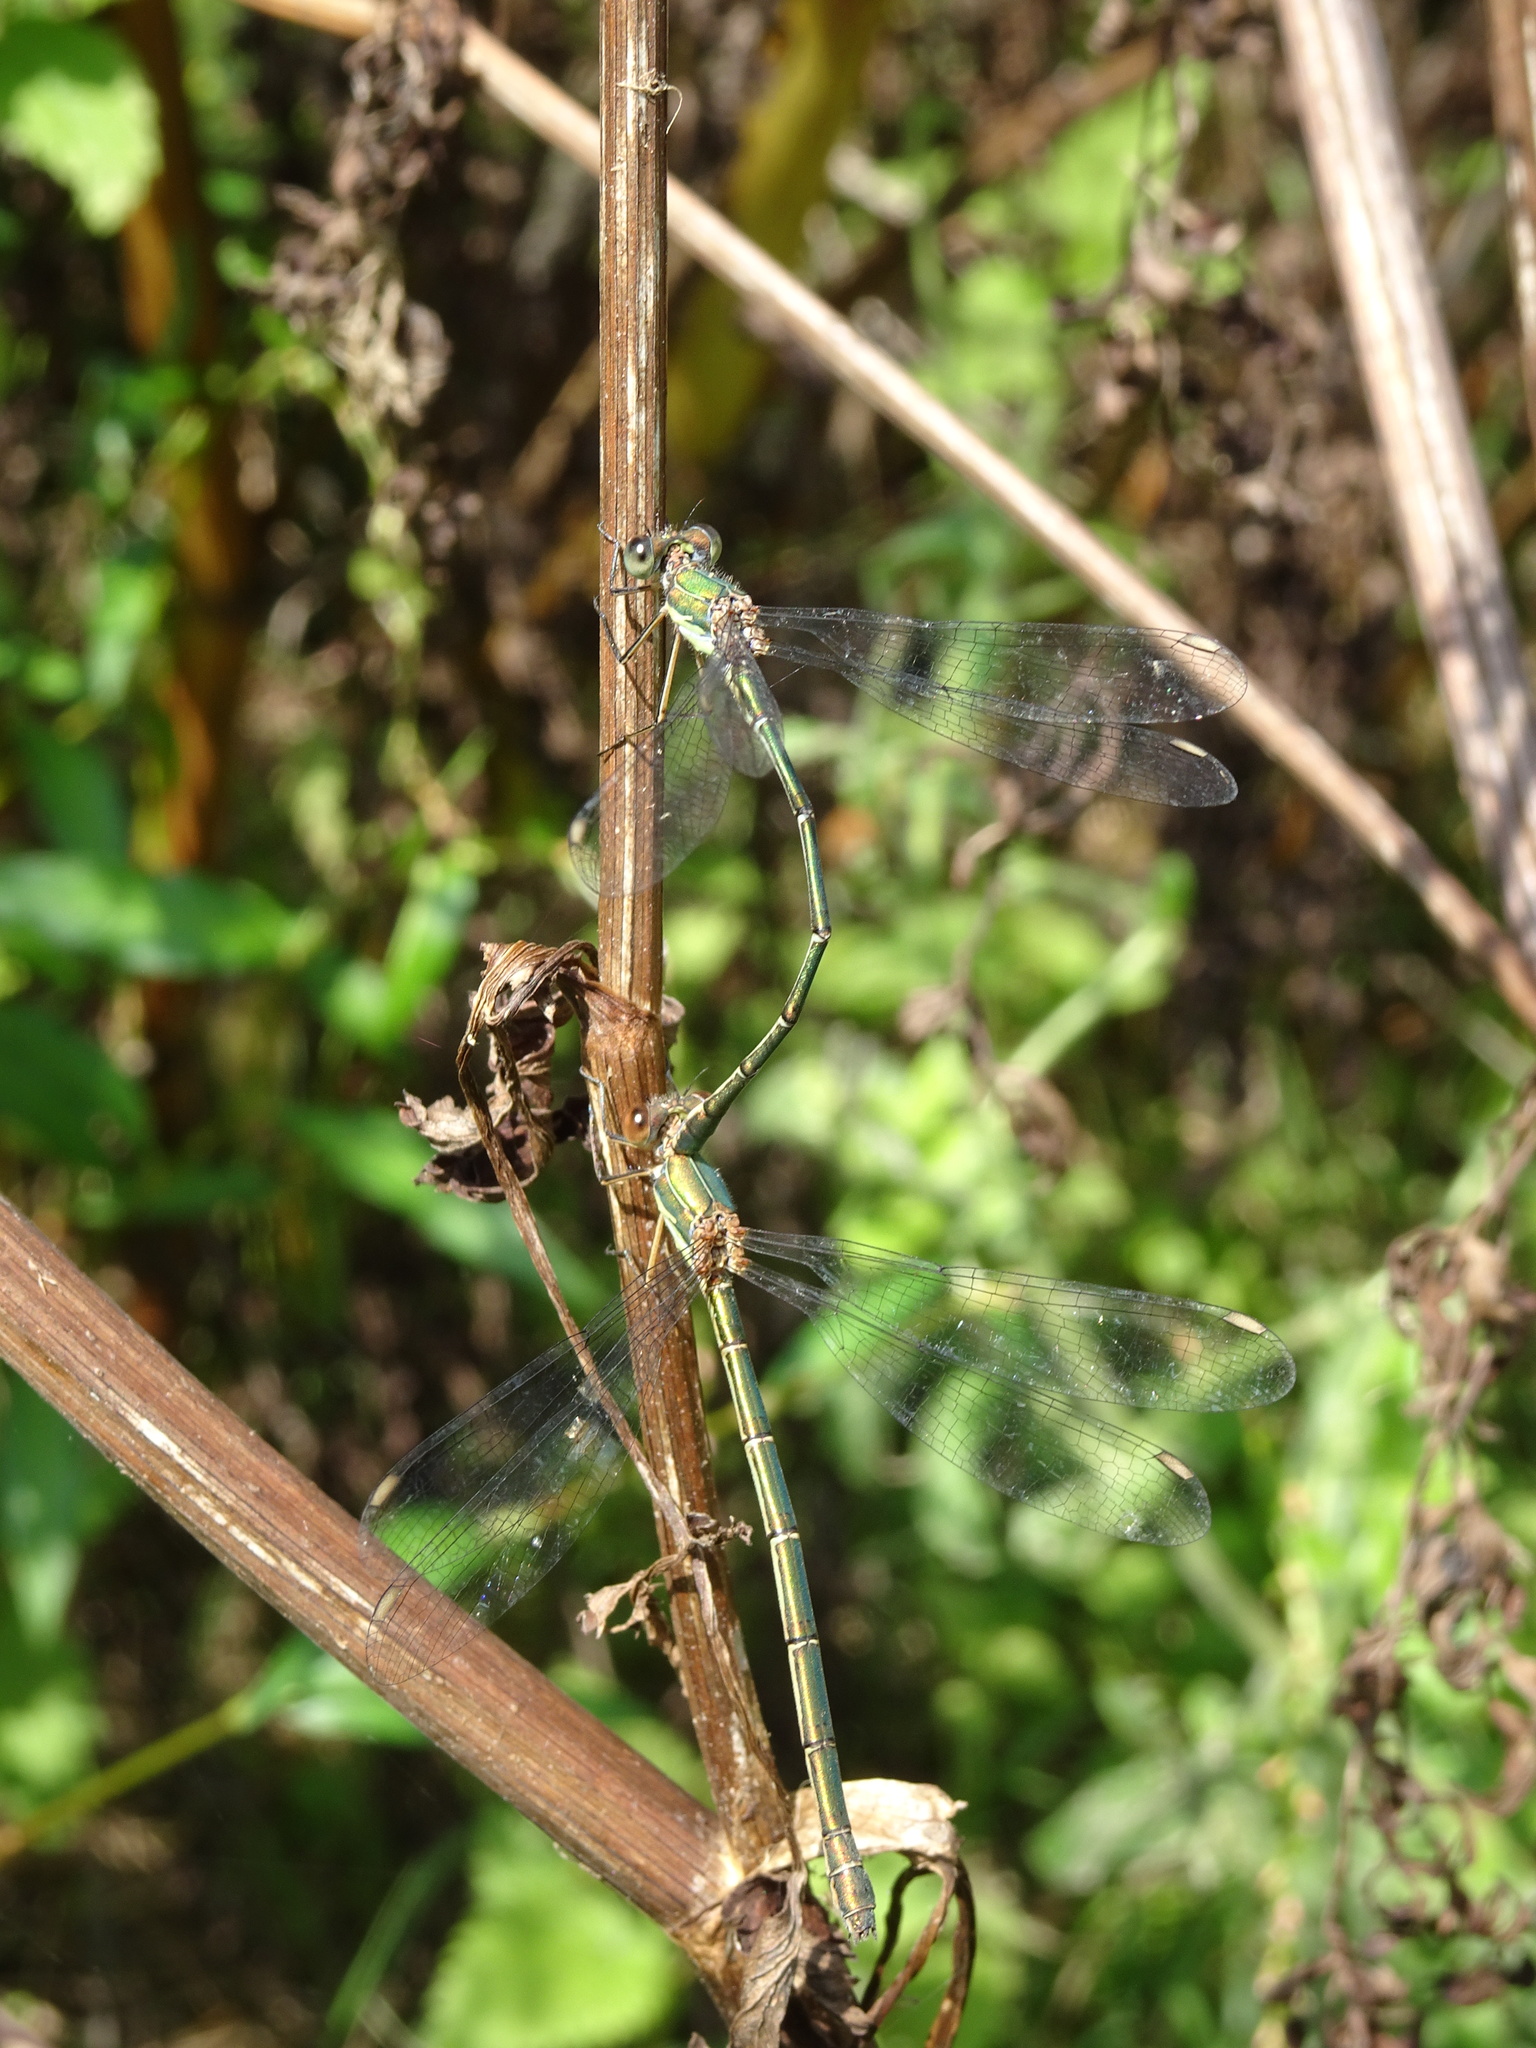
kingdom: Animalia
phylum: Arthropoda
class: Insecta
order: Odonata
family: Lestidae
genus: Chalcolestes
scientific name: Chalcolestes viridis
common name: Green emerald damselfly
